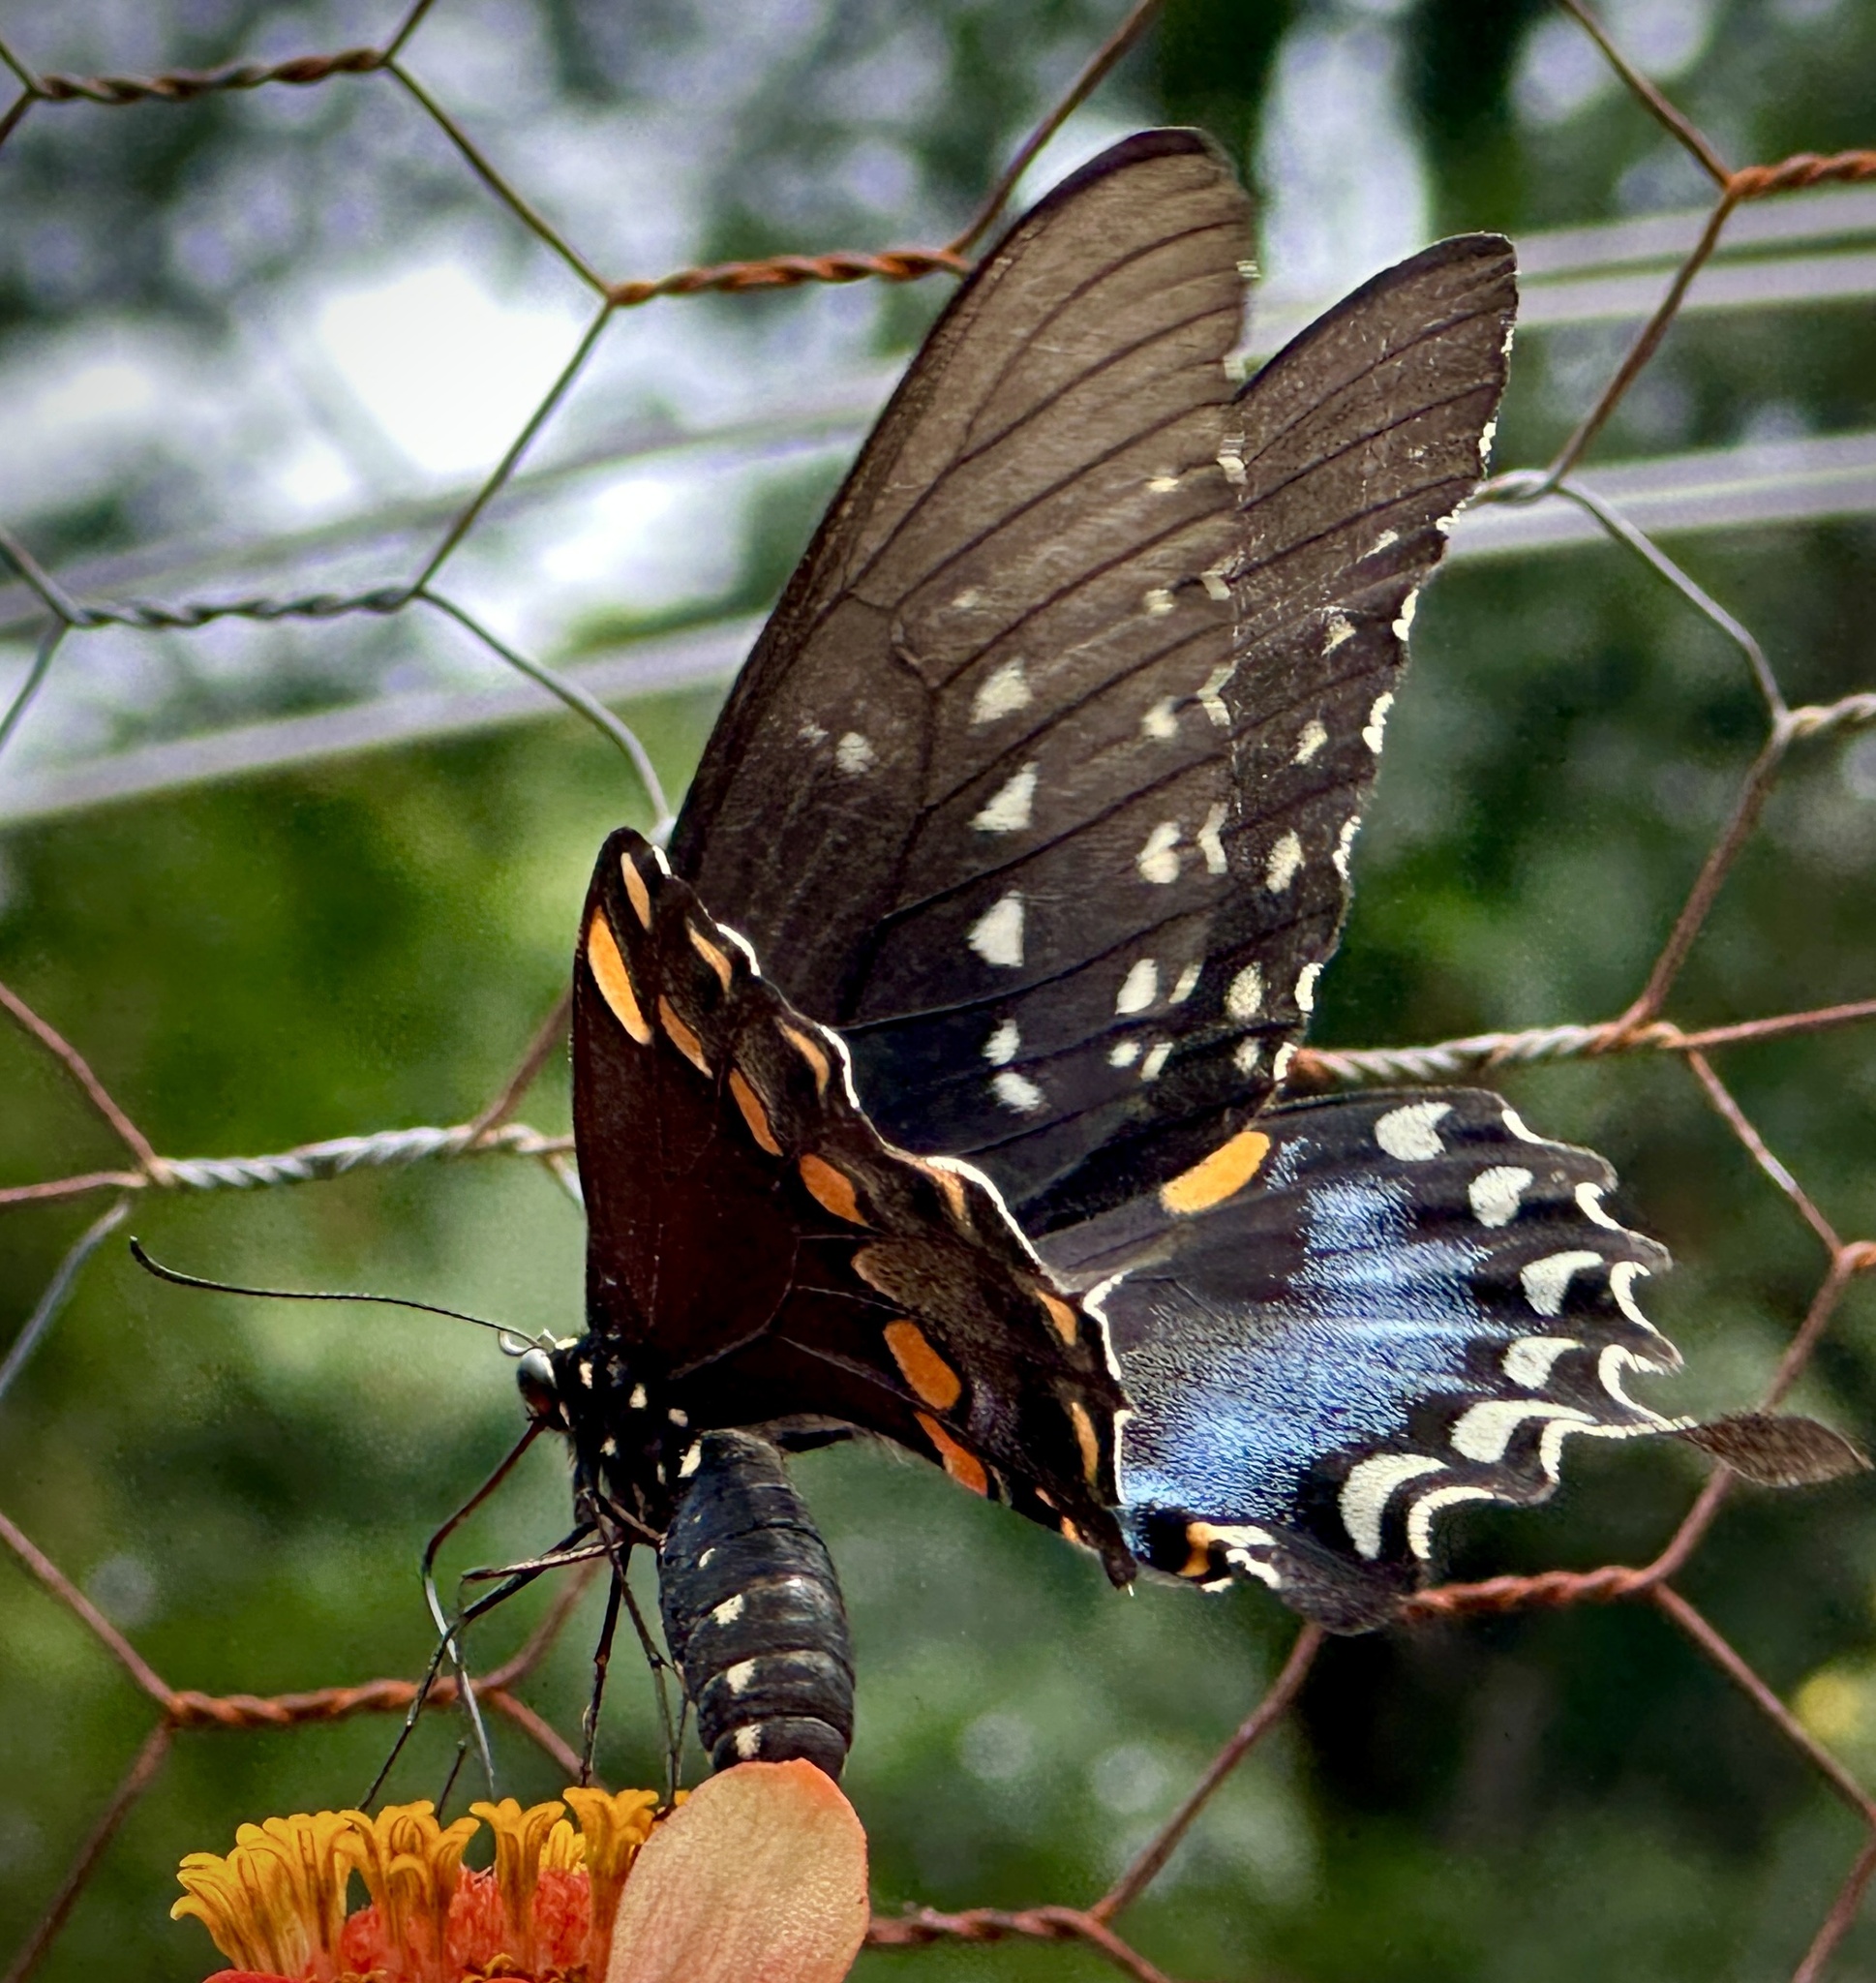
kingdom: Animalia
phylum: Arthropoda
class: Insecta
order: Lepidoptera
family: Papilionidae
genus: Papilio
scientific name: Papilio troilus
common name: Spicebush swallowtail
